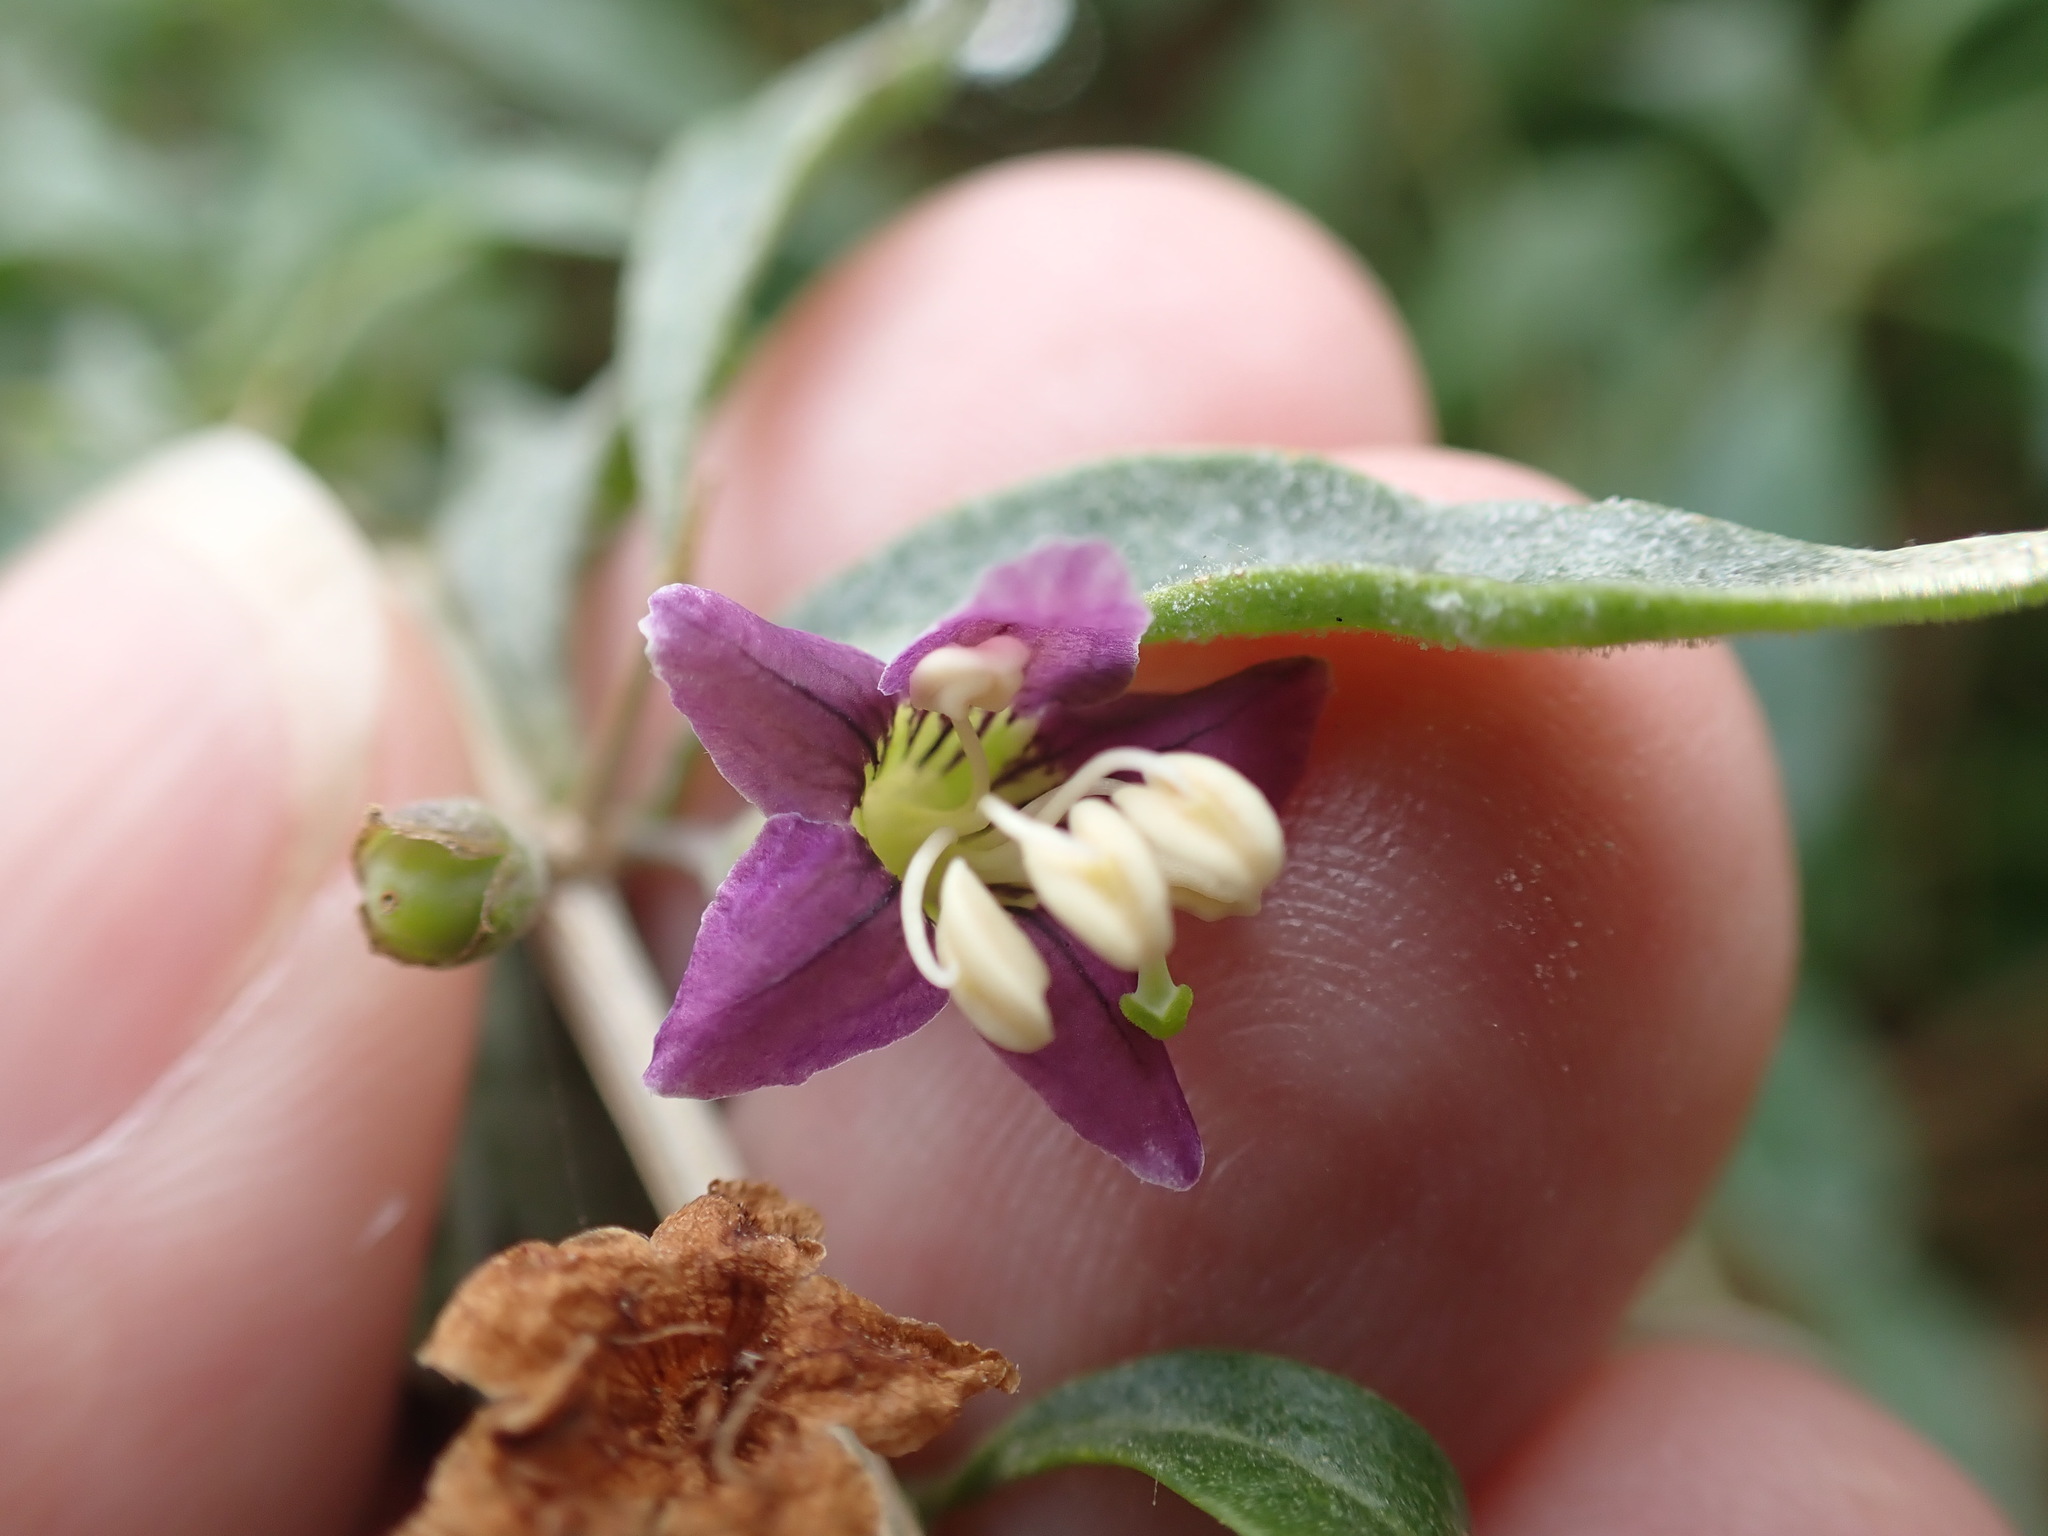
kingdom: Plantae
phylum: Tracheophyta
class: Magnoliopsida
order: Solanales
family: Solanaceae
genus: Lycium
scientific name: Lycium barbarum
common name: Duke of argyll's teaplant
